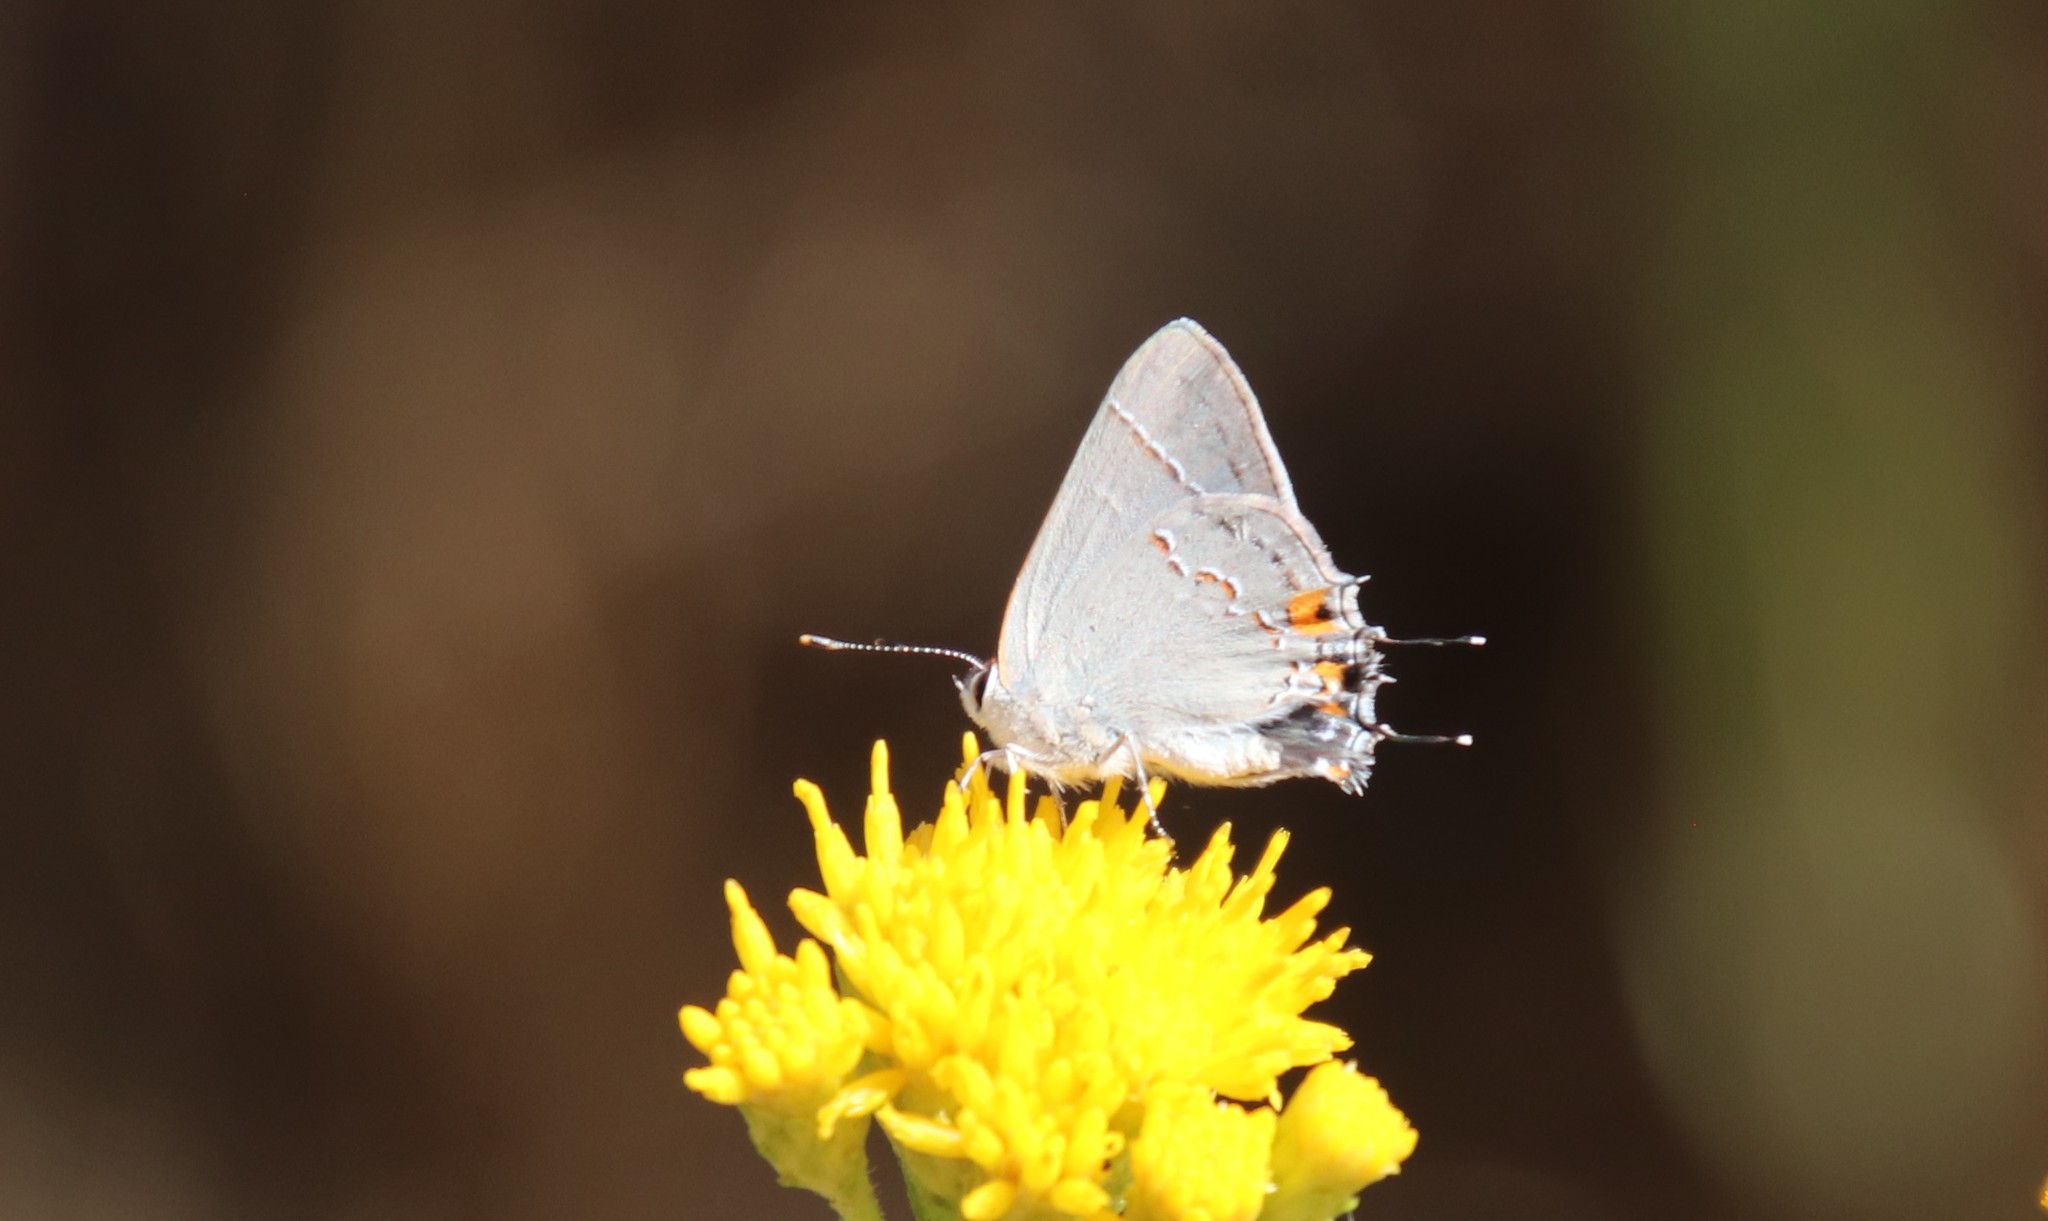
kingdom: Animalia
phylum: Arthropoda
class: Insecta
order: Lepidoptera
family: Lycaenidae
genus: Strymon
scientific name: Strymon melinus
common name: Gray hairstreak
